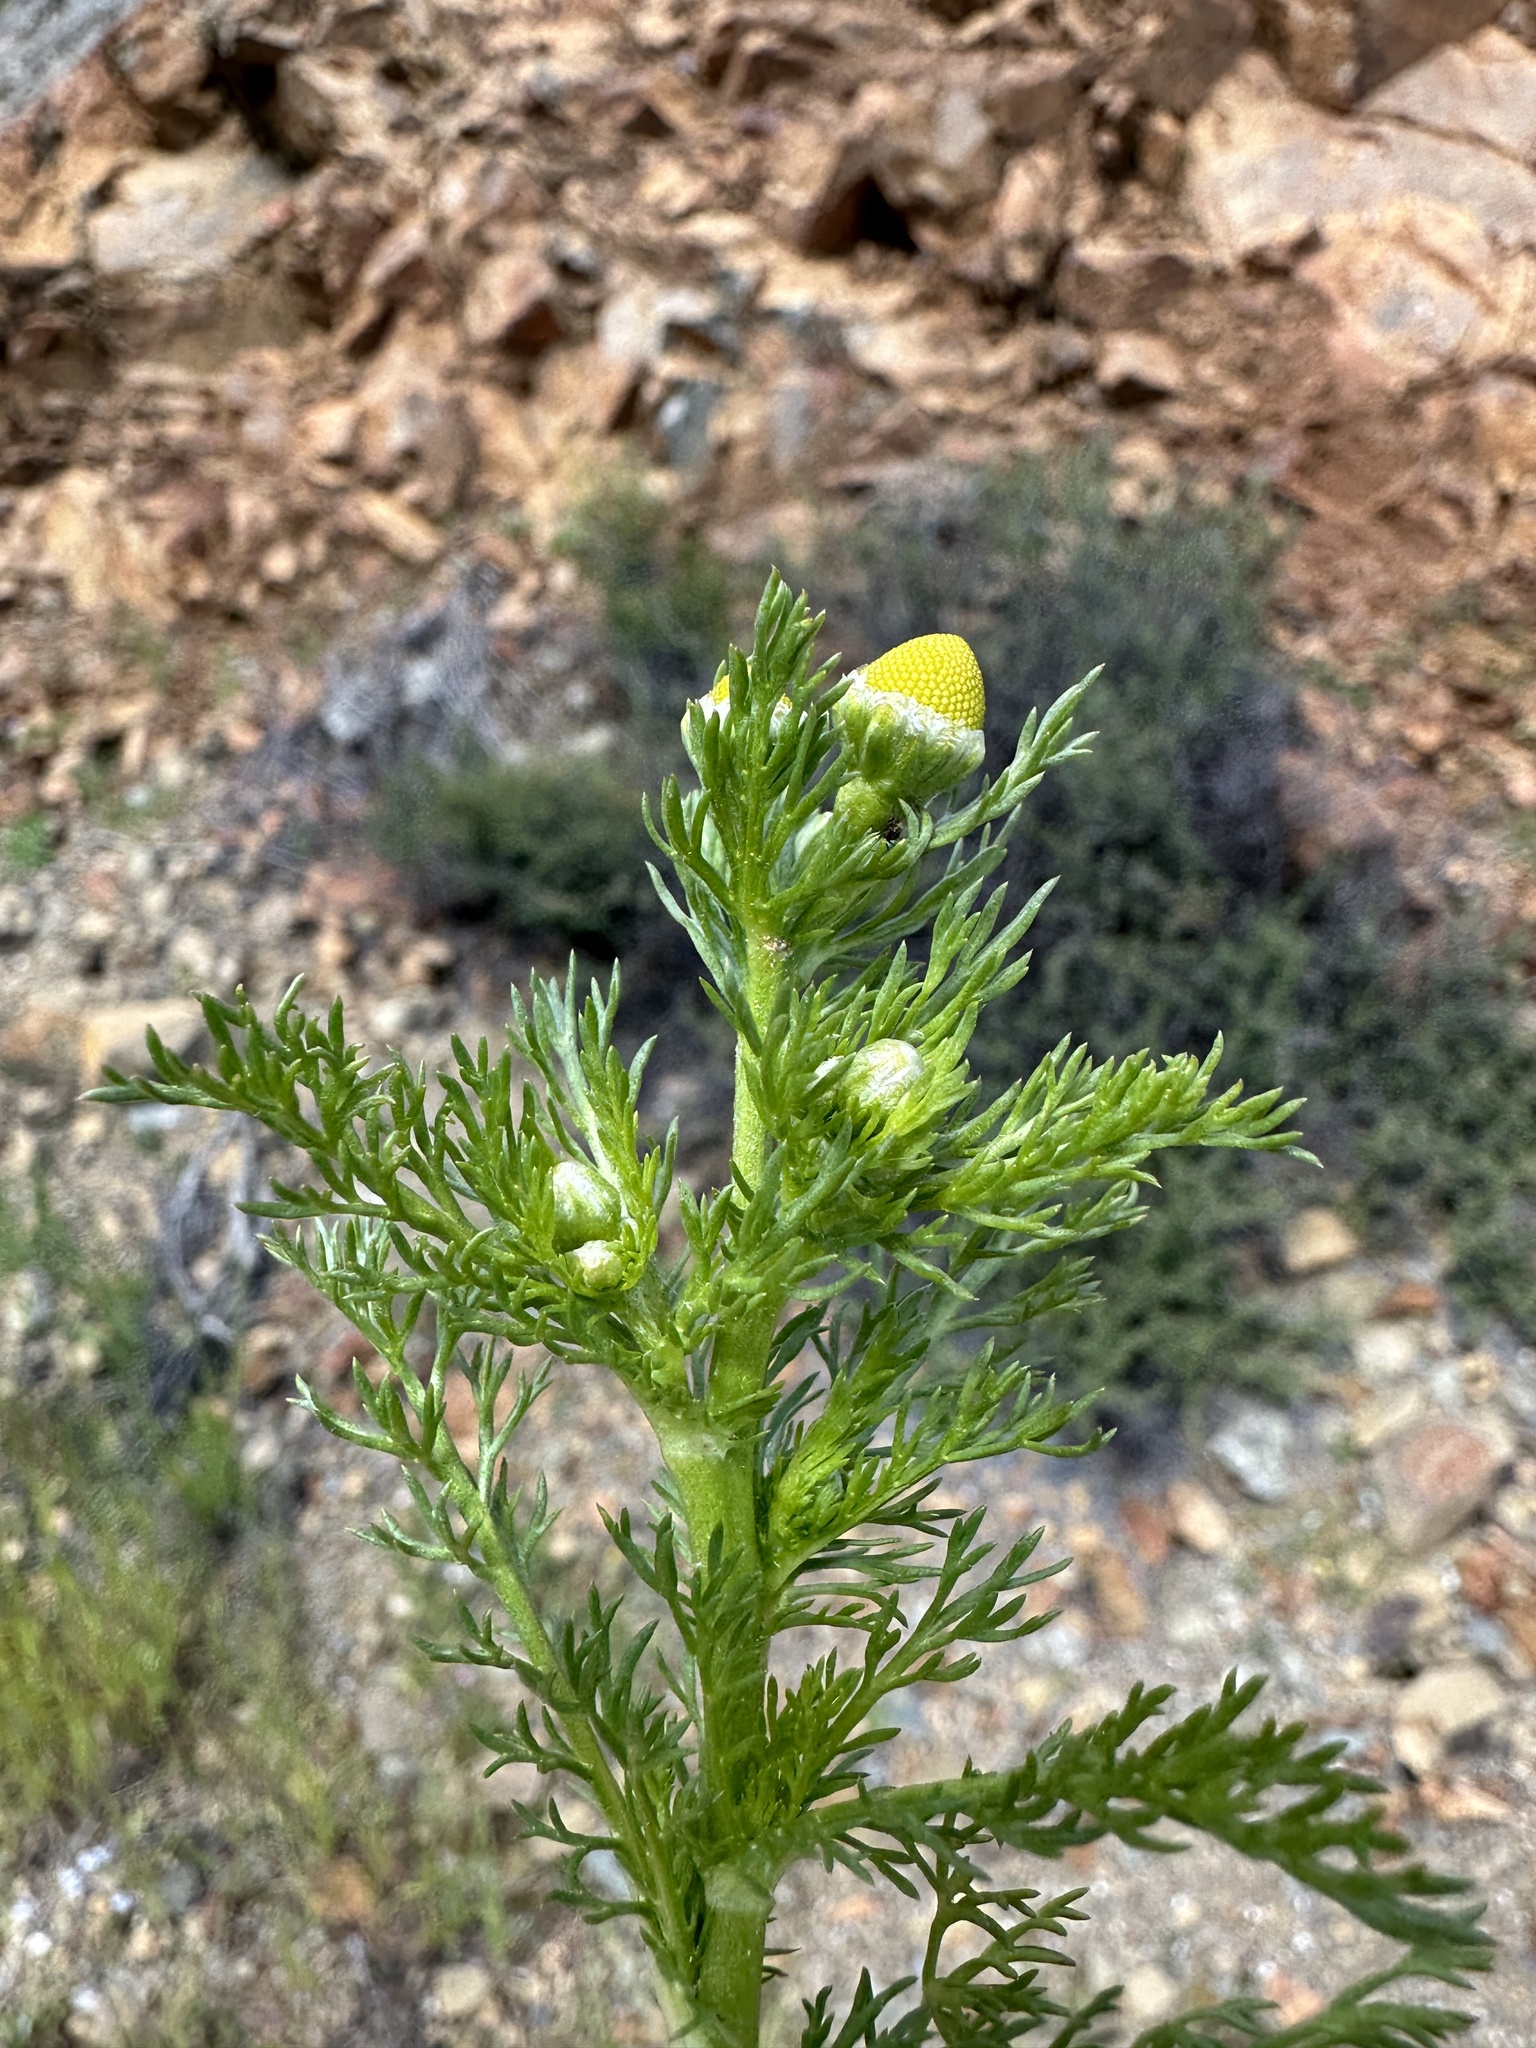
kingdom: Plantae
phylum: Tracheophyta
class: Magnoliopsida
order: Asterales
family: Asteraceae
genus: Matricaria
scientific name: Matricaria discoidea
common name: Disc mayweed
